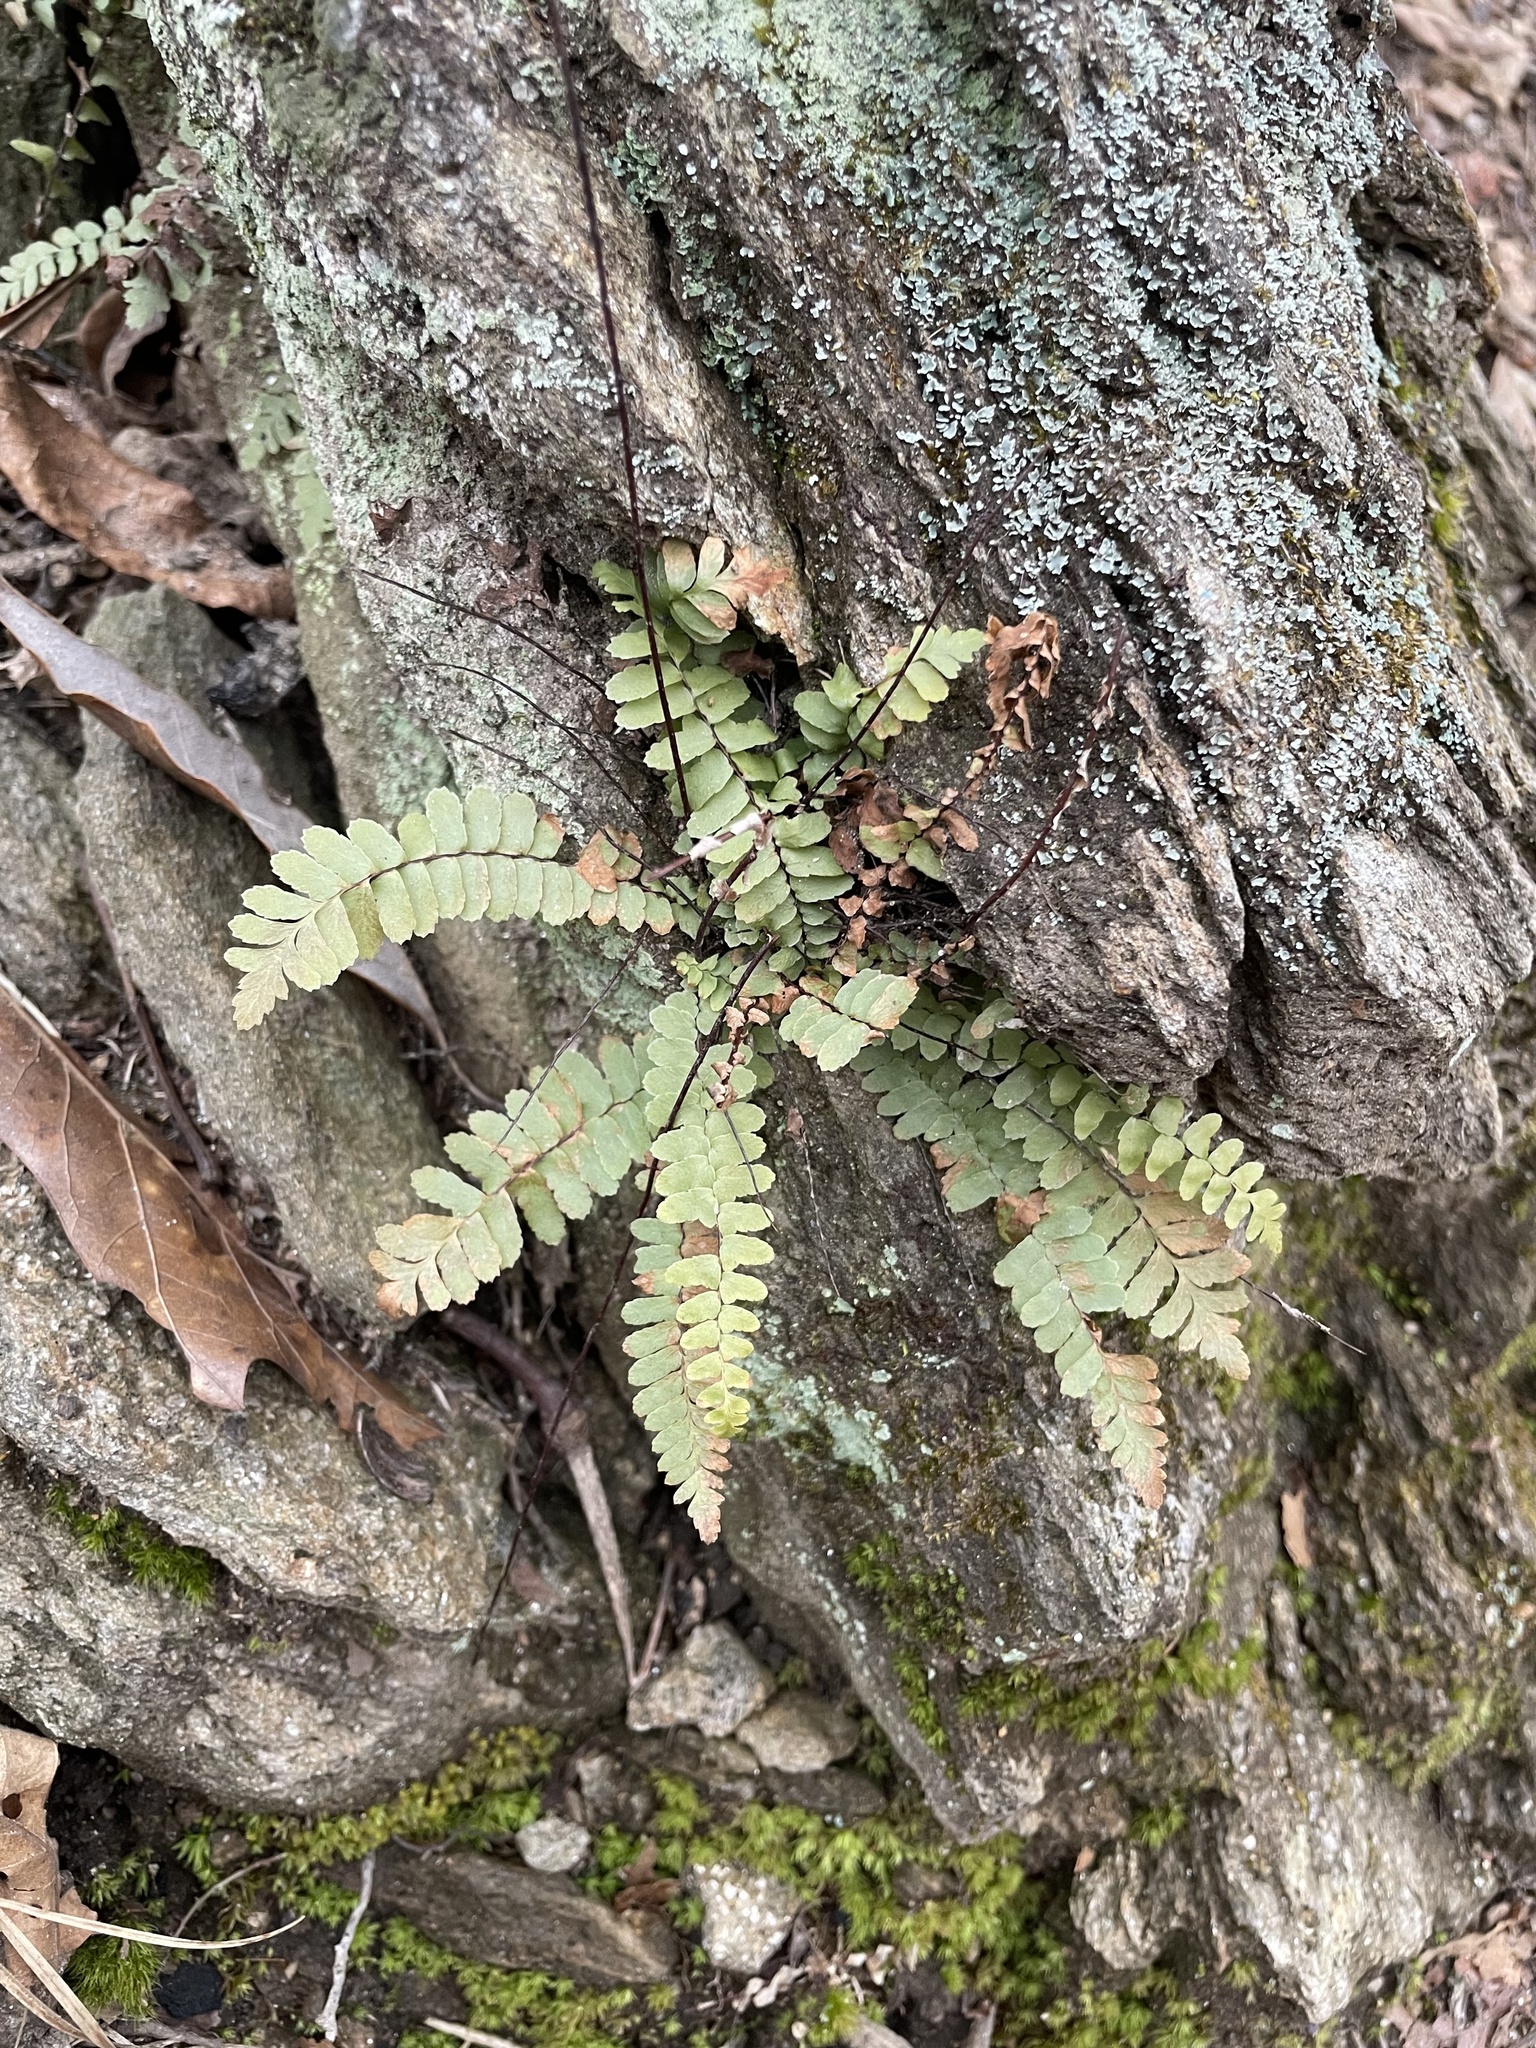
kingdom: Plantae
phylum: Tracheophyta
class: Polypodiopsida
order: Polypodiales
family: Aspleniaceae
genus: Asplenium
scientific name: Asplenium platyneuron
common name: Ebony spleenwort
